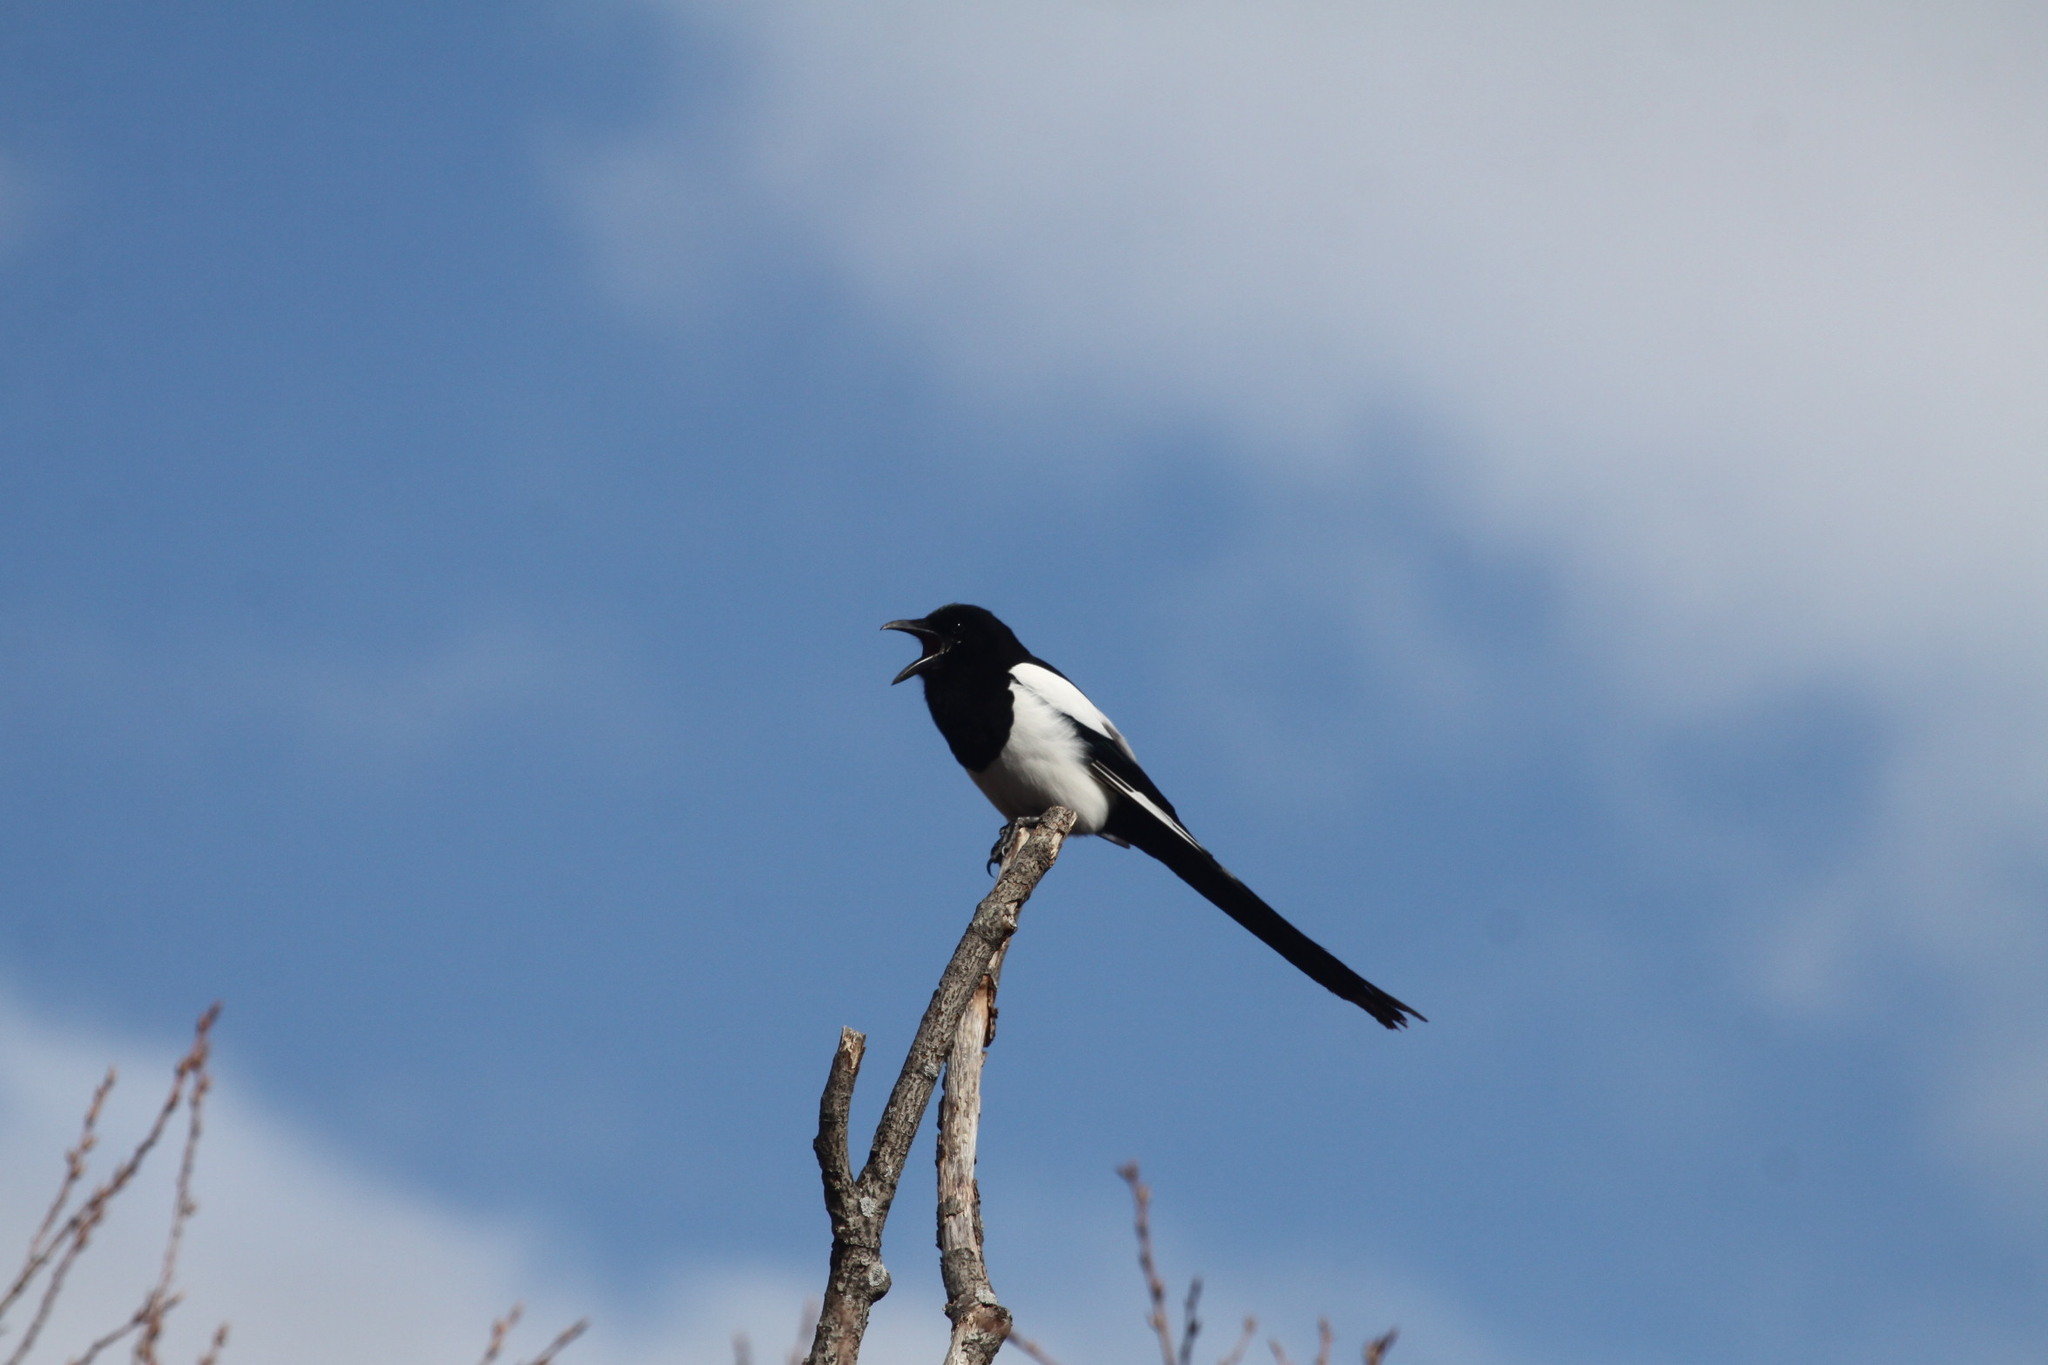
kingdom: Animalia
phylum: Chordata
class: Aves
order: Passeriformes
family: Corvidae
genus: Pica
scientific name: Pica pica
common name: Eurasian magpie
